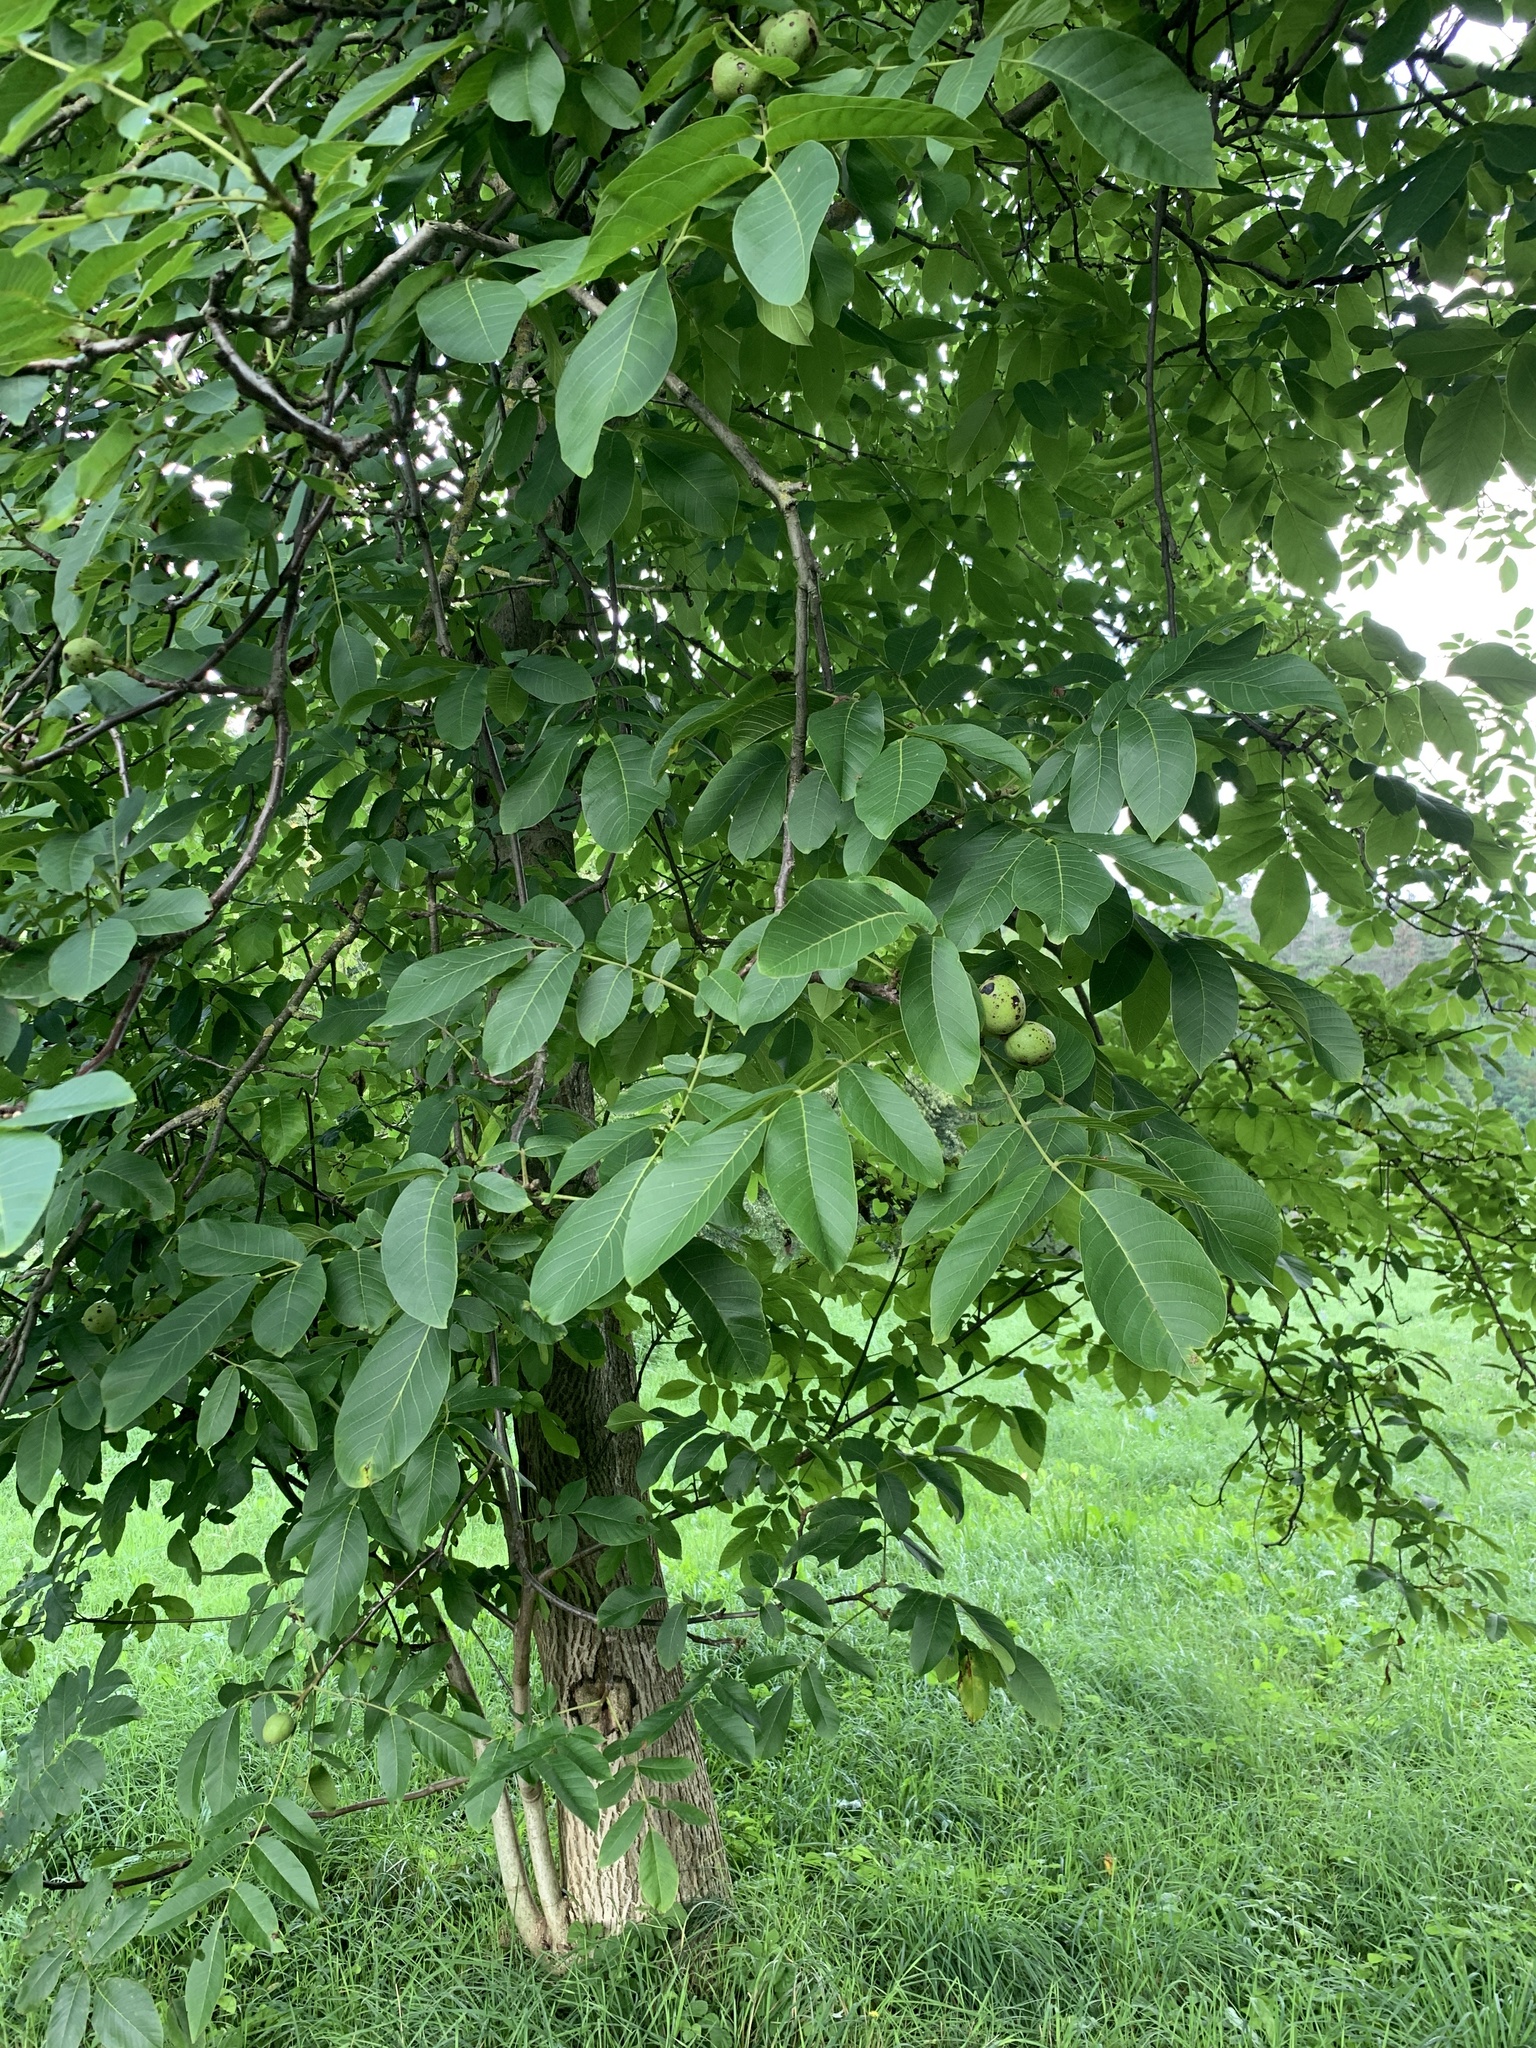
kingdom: Plantae
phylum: Tracheophyta
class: Magnoliopsida
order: Fagales
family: Juglandaceae
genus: Juglans
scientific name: Juglans regia
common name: Walnut
